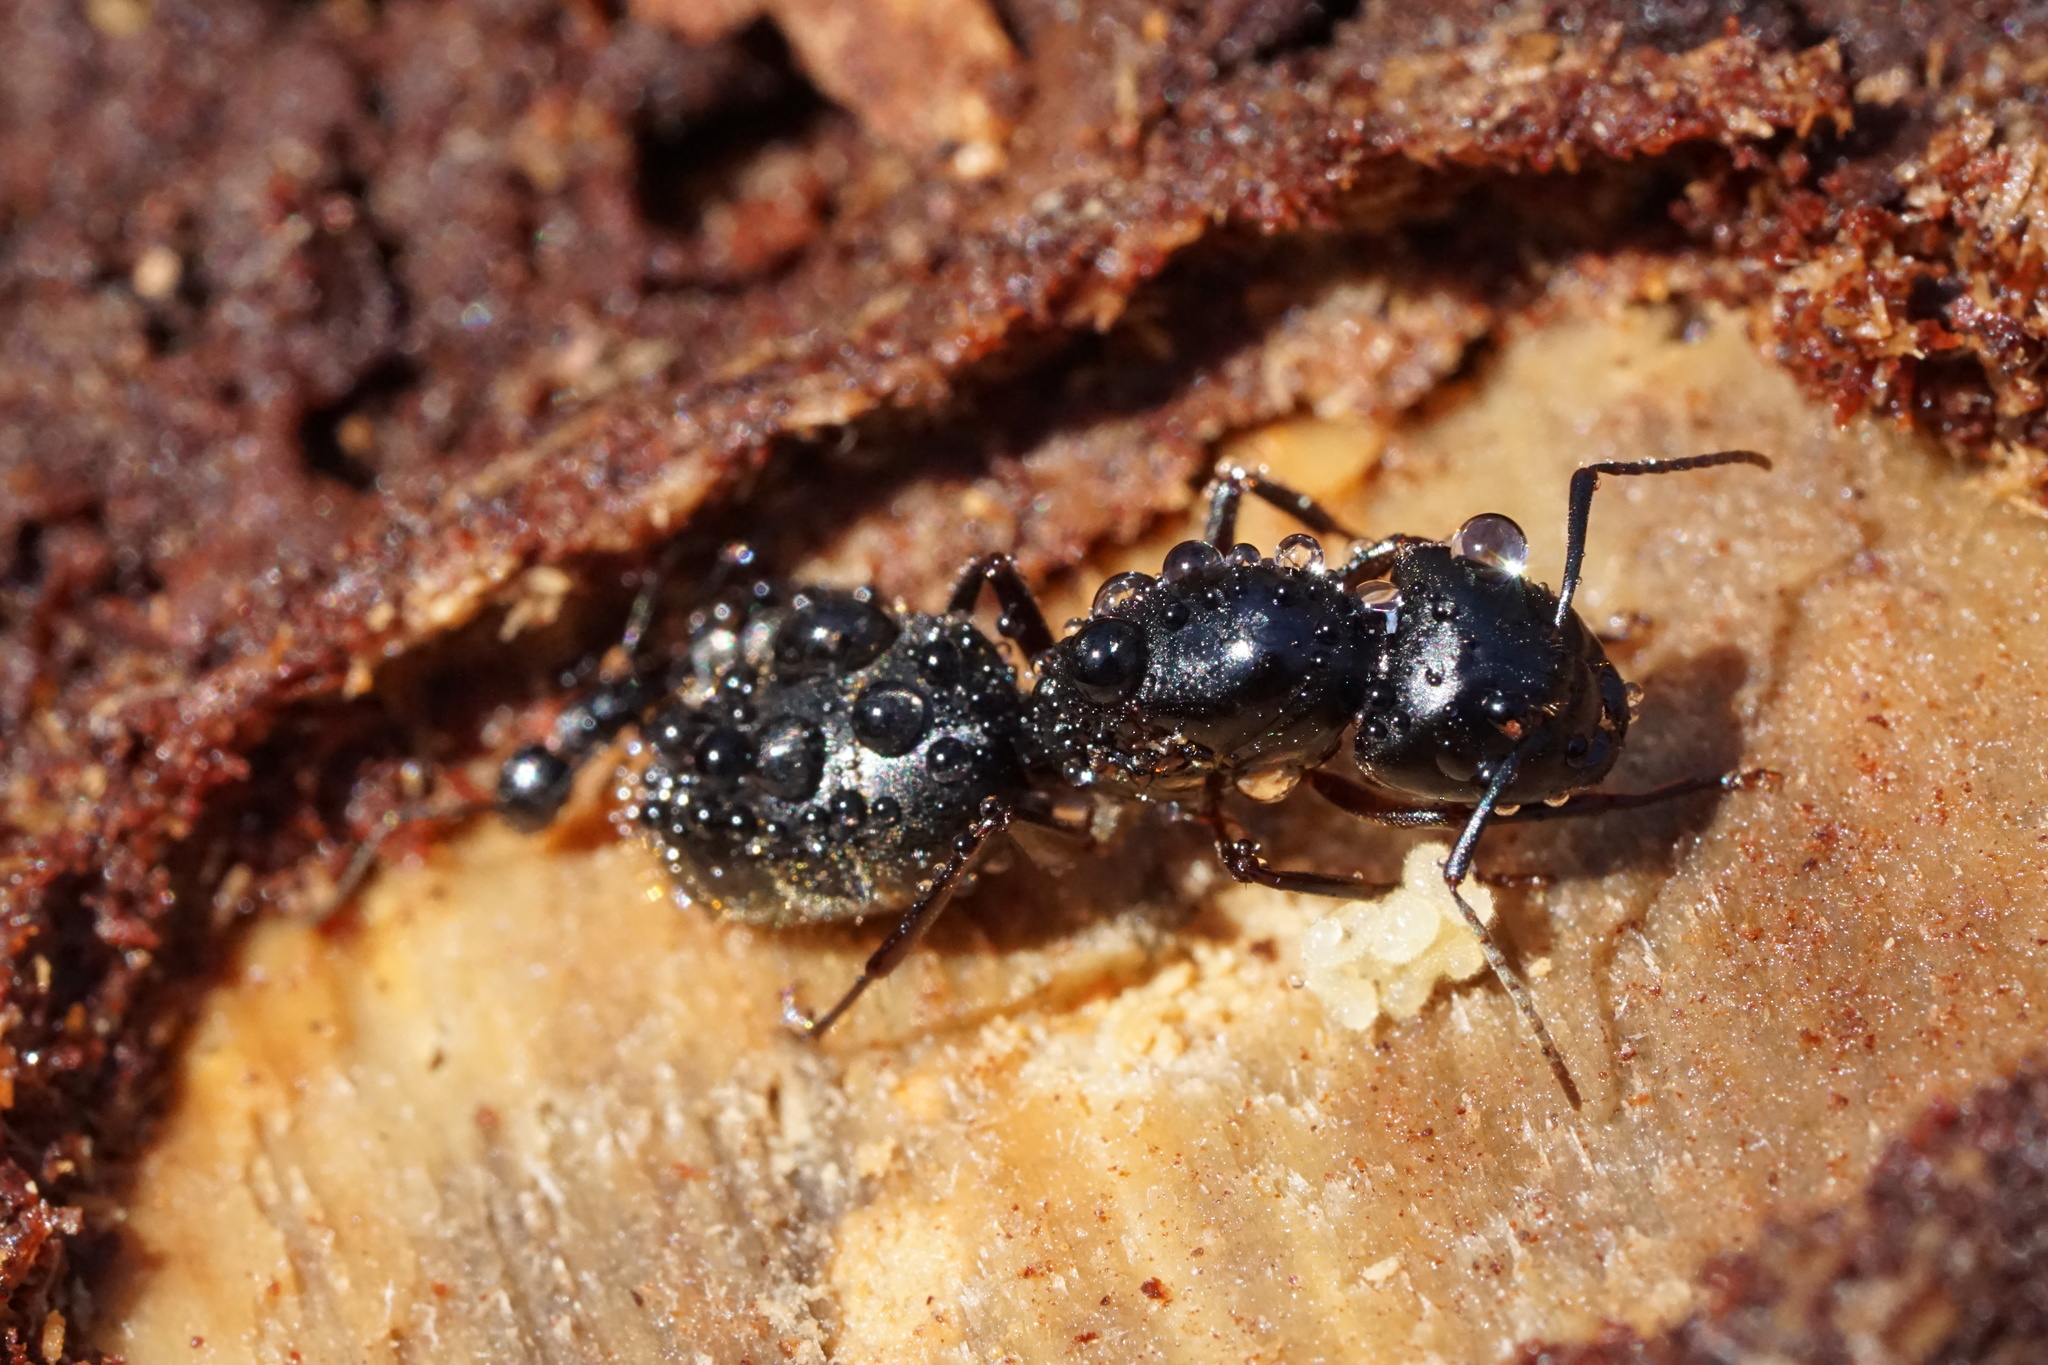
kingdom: Animalia
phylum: Arthropoda
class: Insecta
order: Hymenoptera
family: Formicidae
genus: Camponotus
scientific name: Camponotus pennsylvanicus
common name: Black carpenter ant
